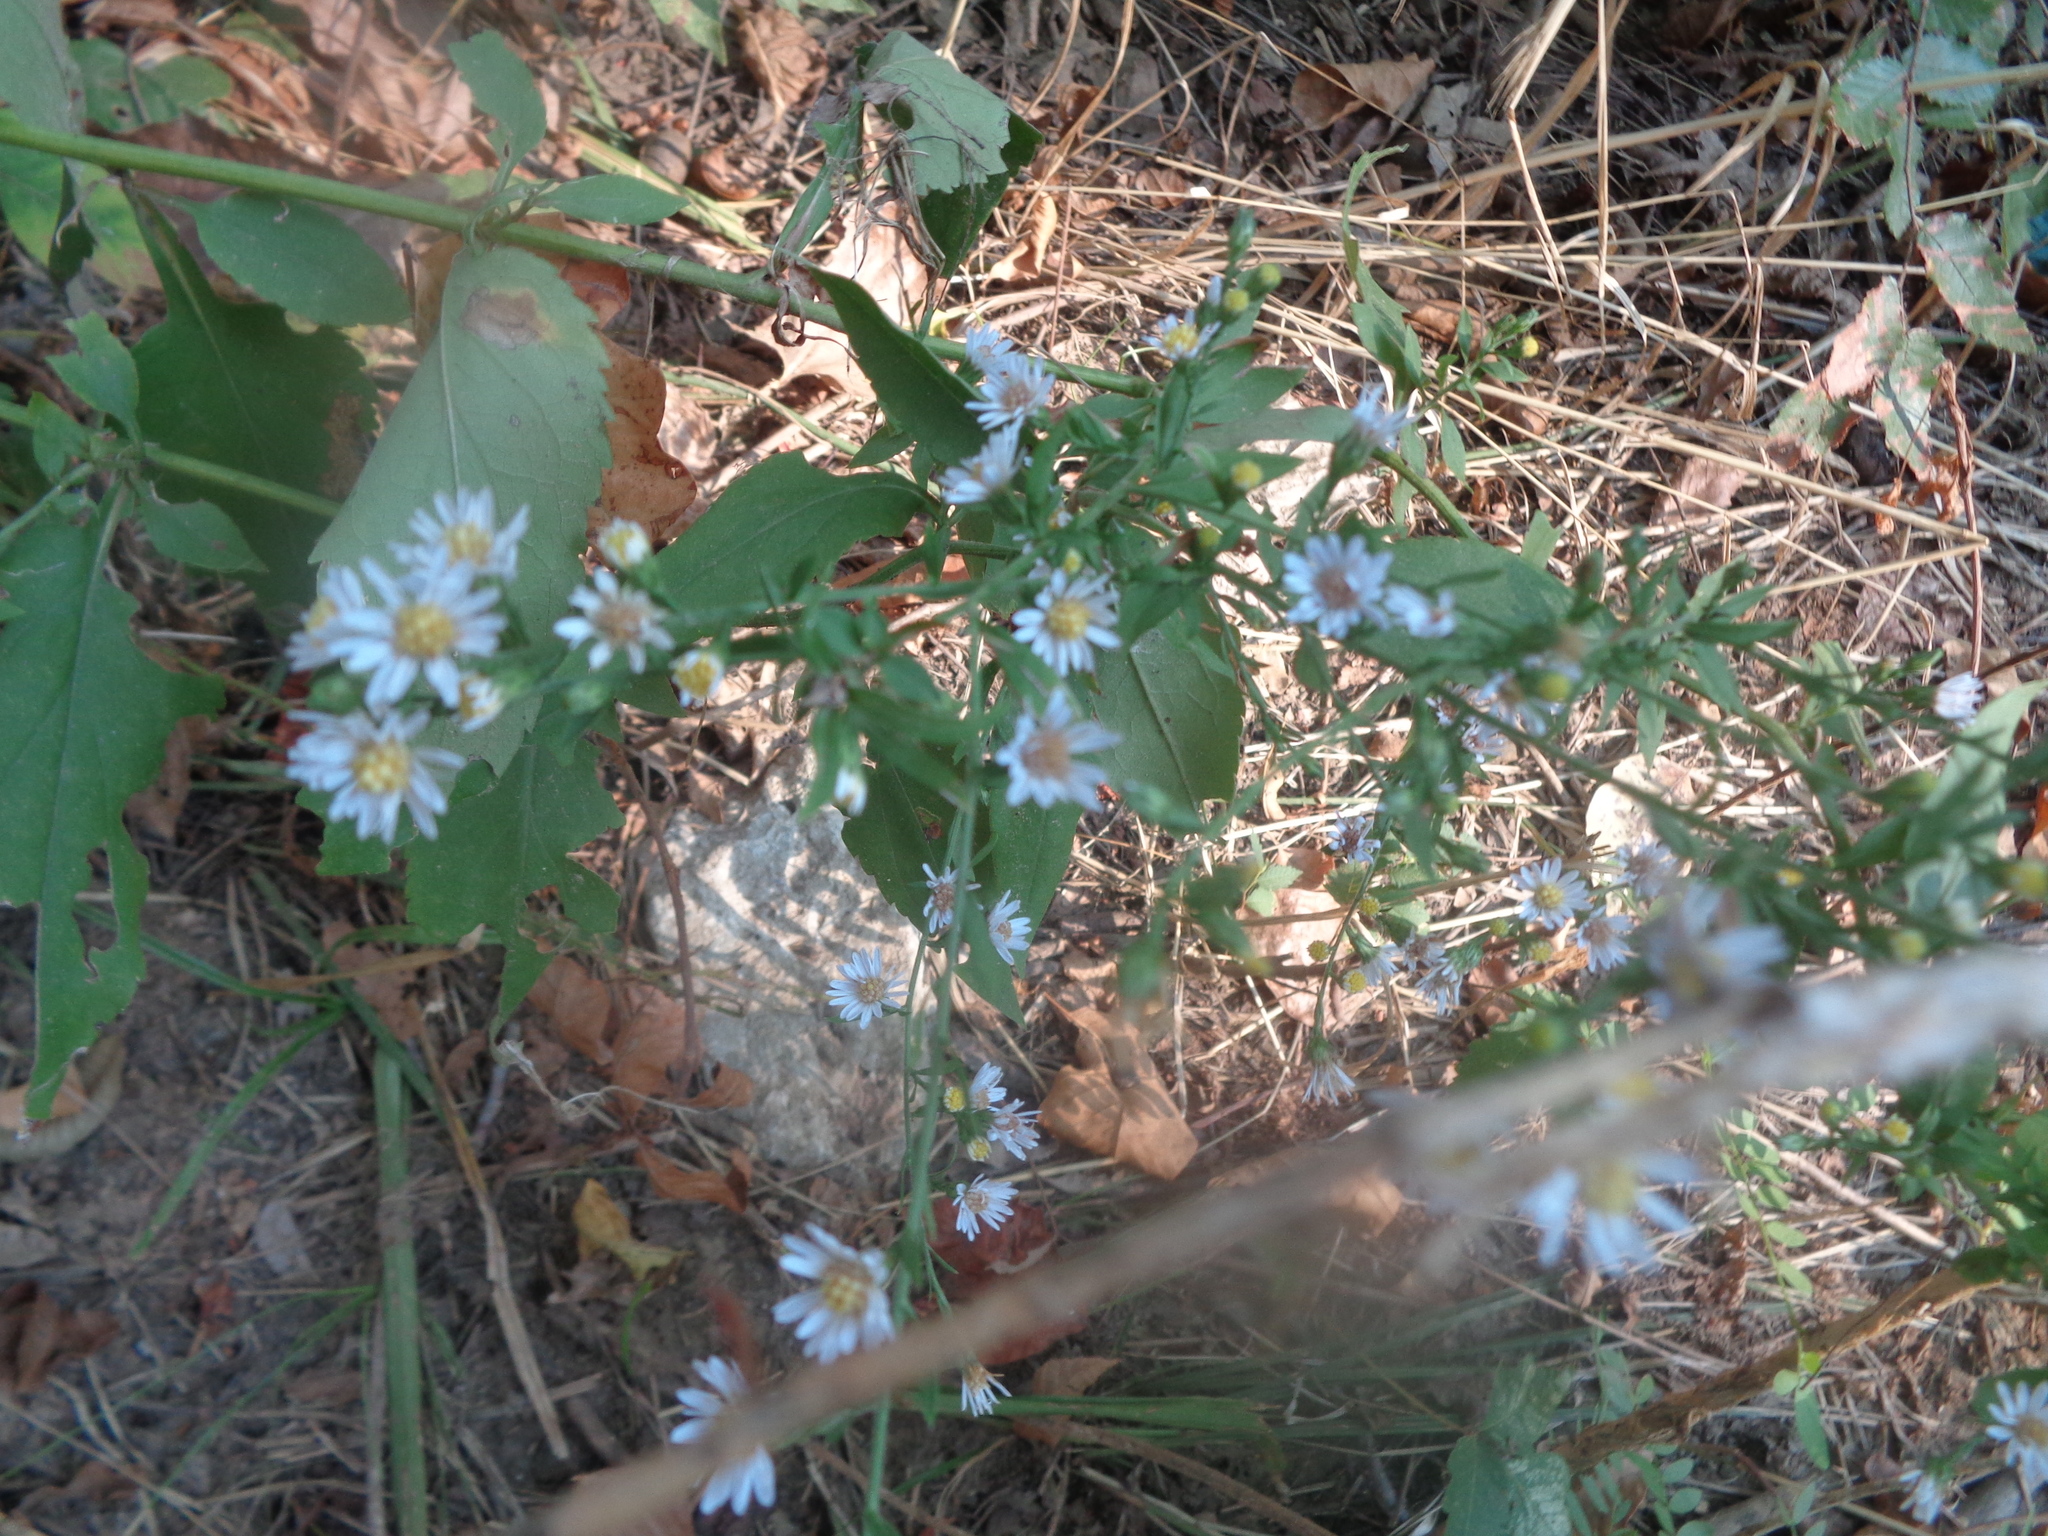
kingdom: Plantae
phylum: Tracheophyta
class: Magnoliopsida
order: Asterales
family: Asteraceae
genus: Symphyotrichum
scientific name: Symphyotrichum drummondii
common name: Drummond's aster
